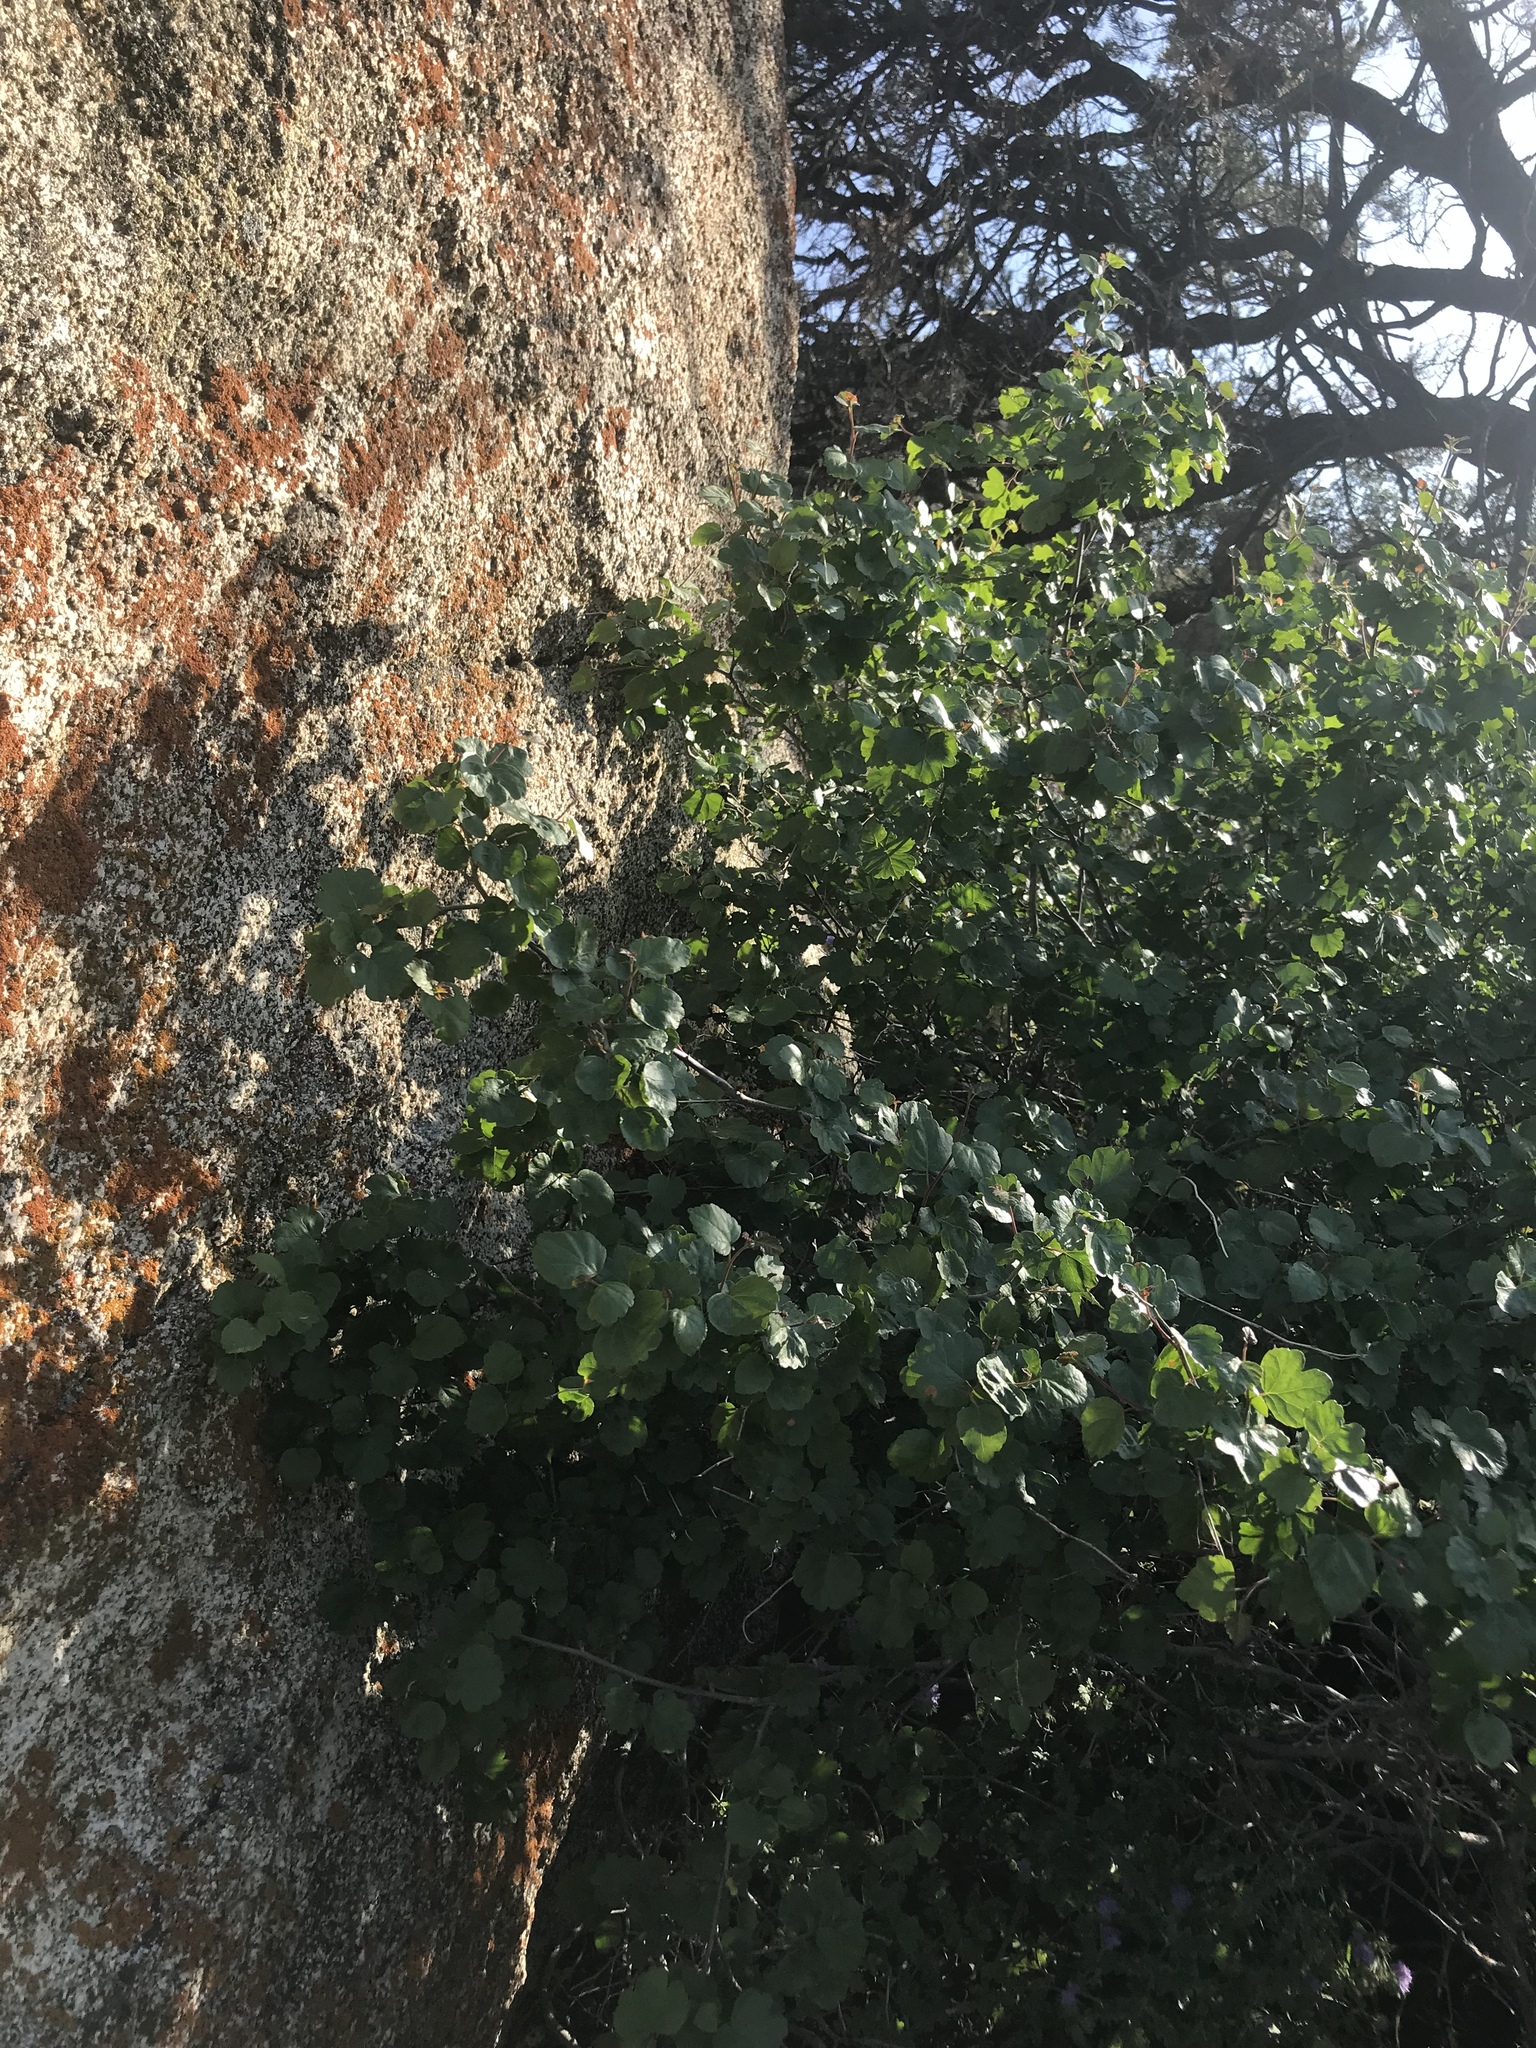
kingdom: Plantae
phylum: Tracheophyta
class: Magnoliopsida
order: Sapindales
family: Anacardiaceae
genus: Rhus
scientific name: Rhus aromatica
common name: Aromatic sumac
